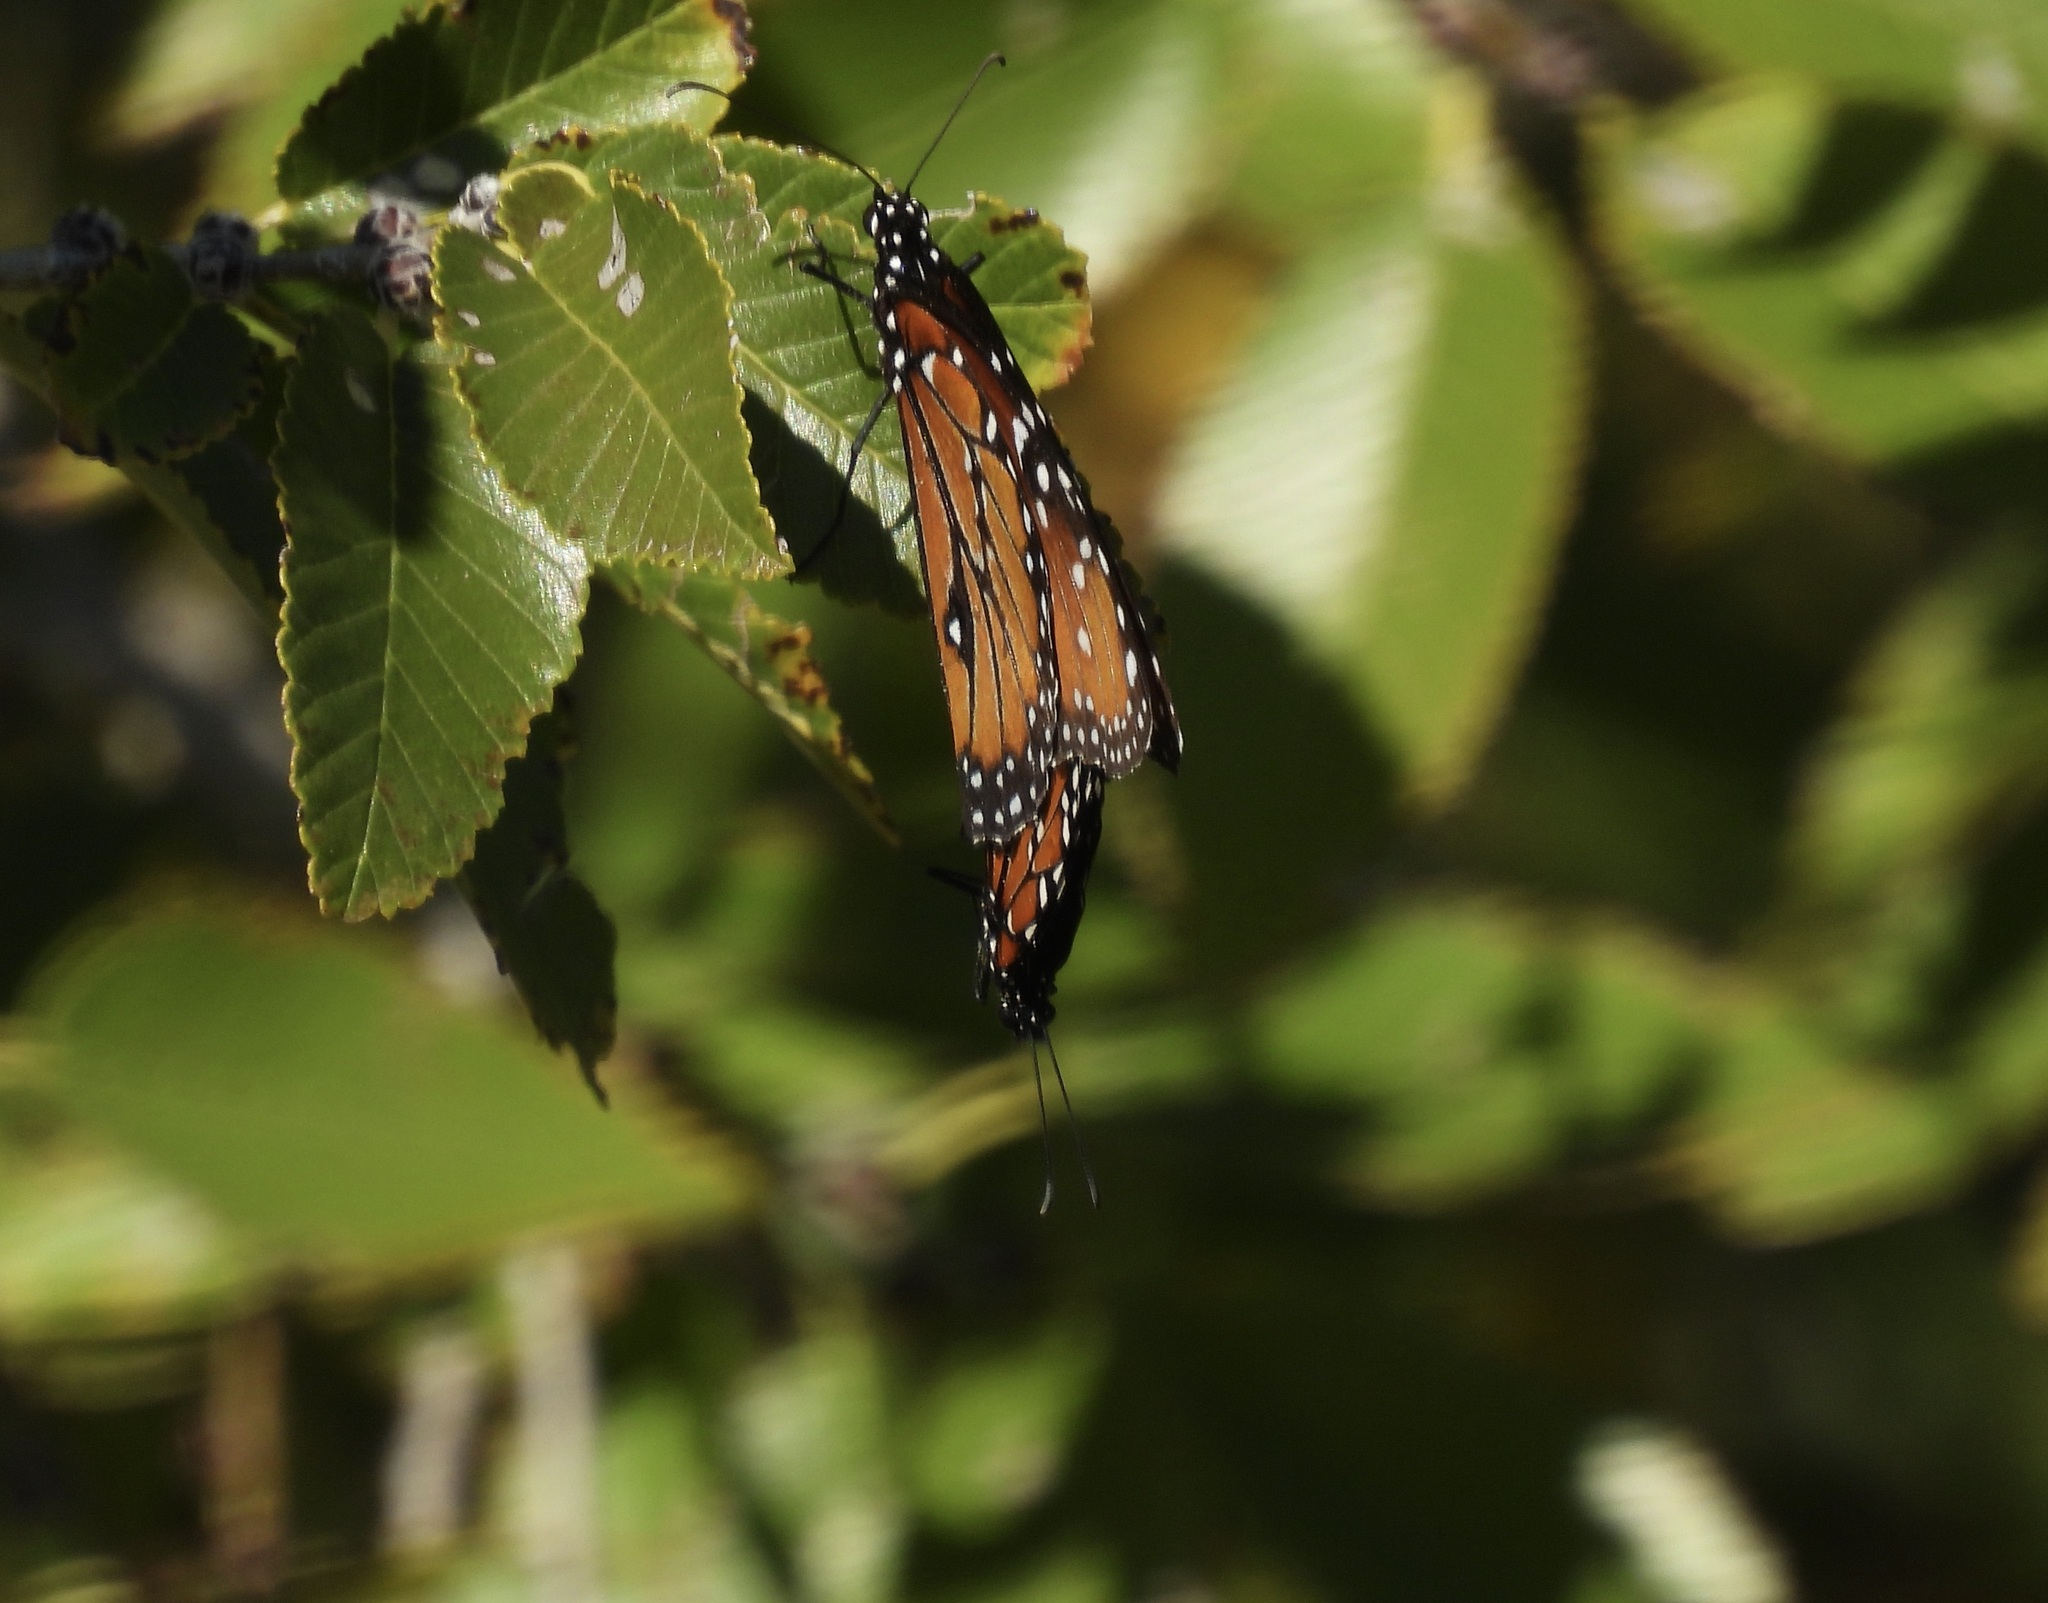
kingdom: Animalia
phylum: Arthropoda
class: Insecta
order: Lepidoptera
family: Nymphalidae
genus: Danaus
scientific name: Danaus gilippus
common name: Queen
